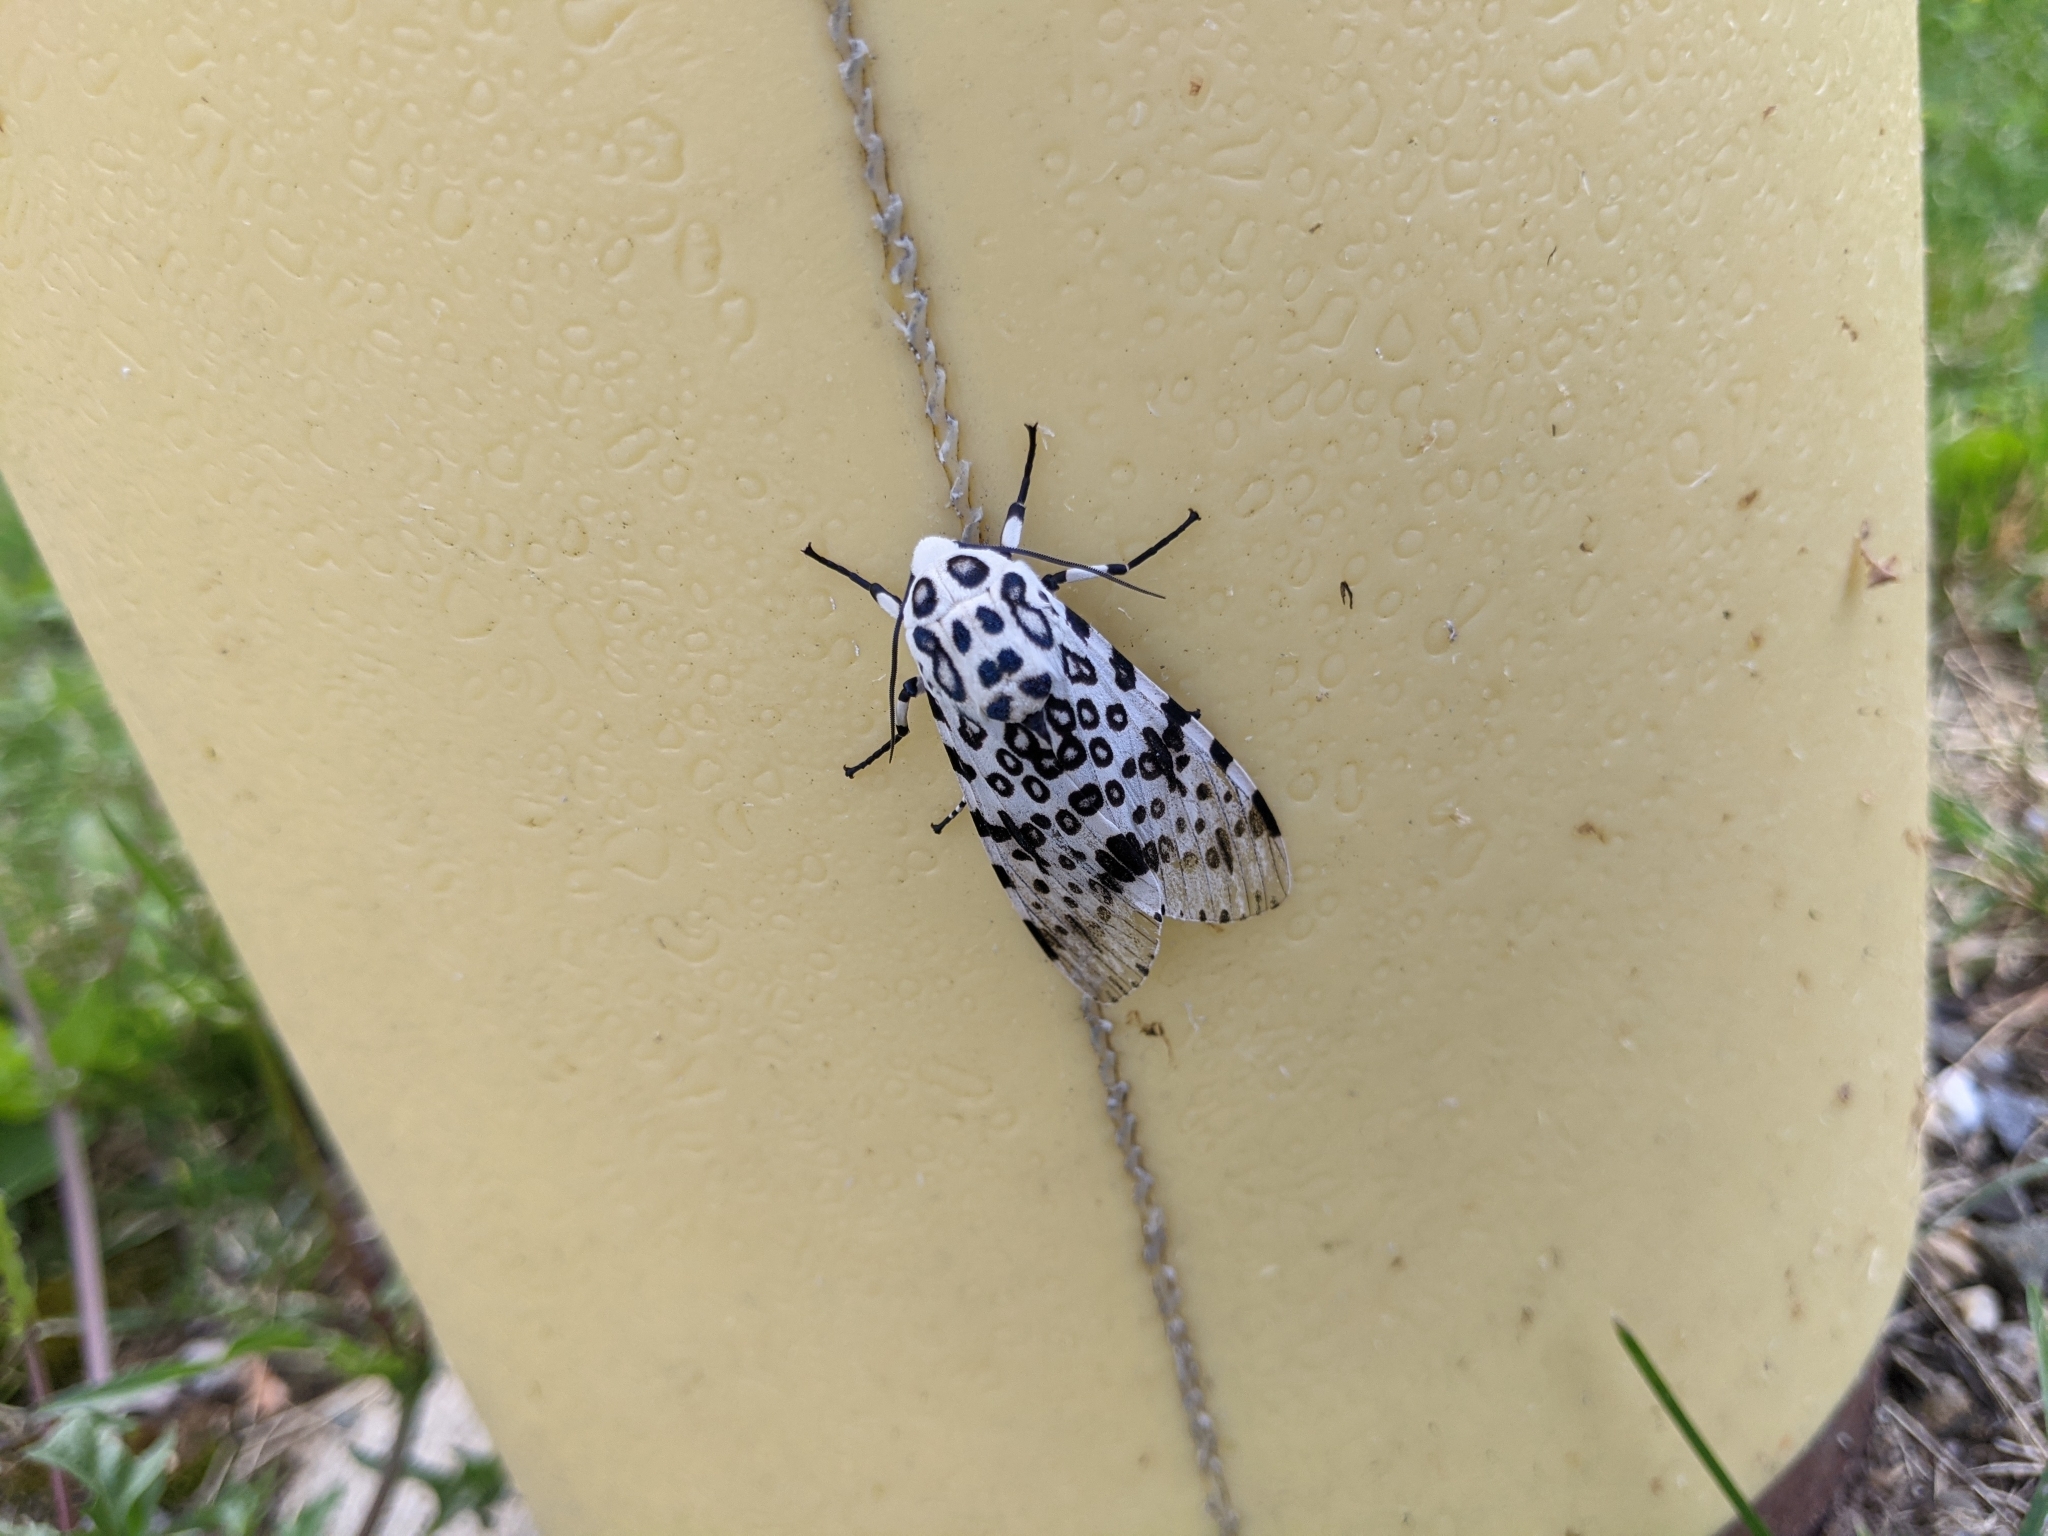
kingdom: Animalia
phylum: Arthropoda
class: Insecta
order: Lepidoptera
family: Erebidae
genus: Hypercompe
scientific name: Hypercompe scribonia
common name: Giant leopard moth
